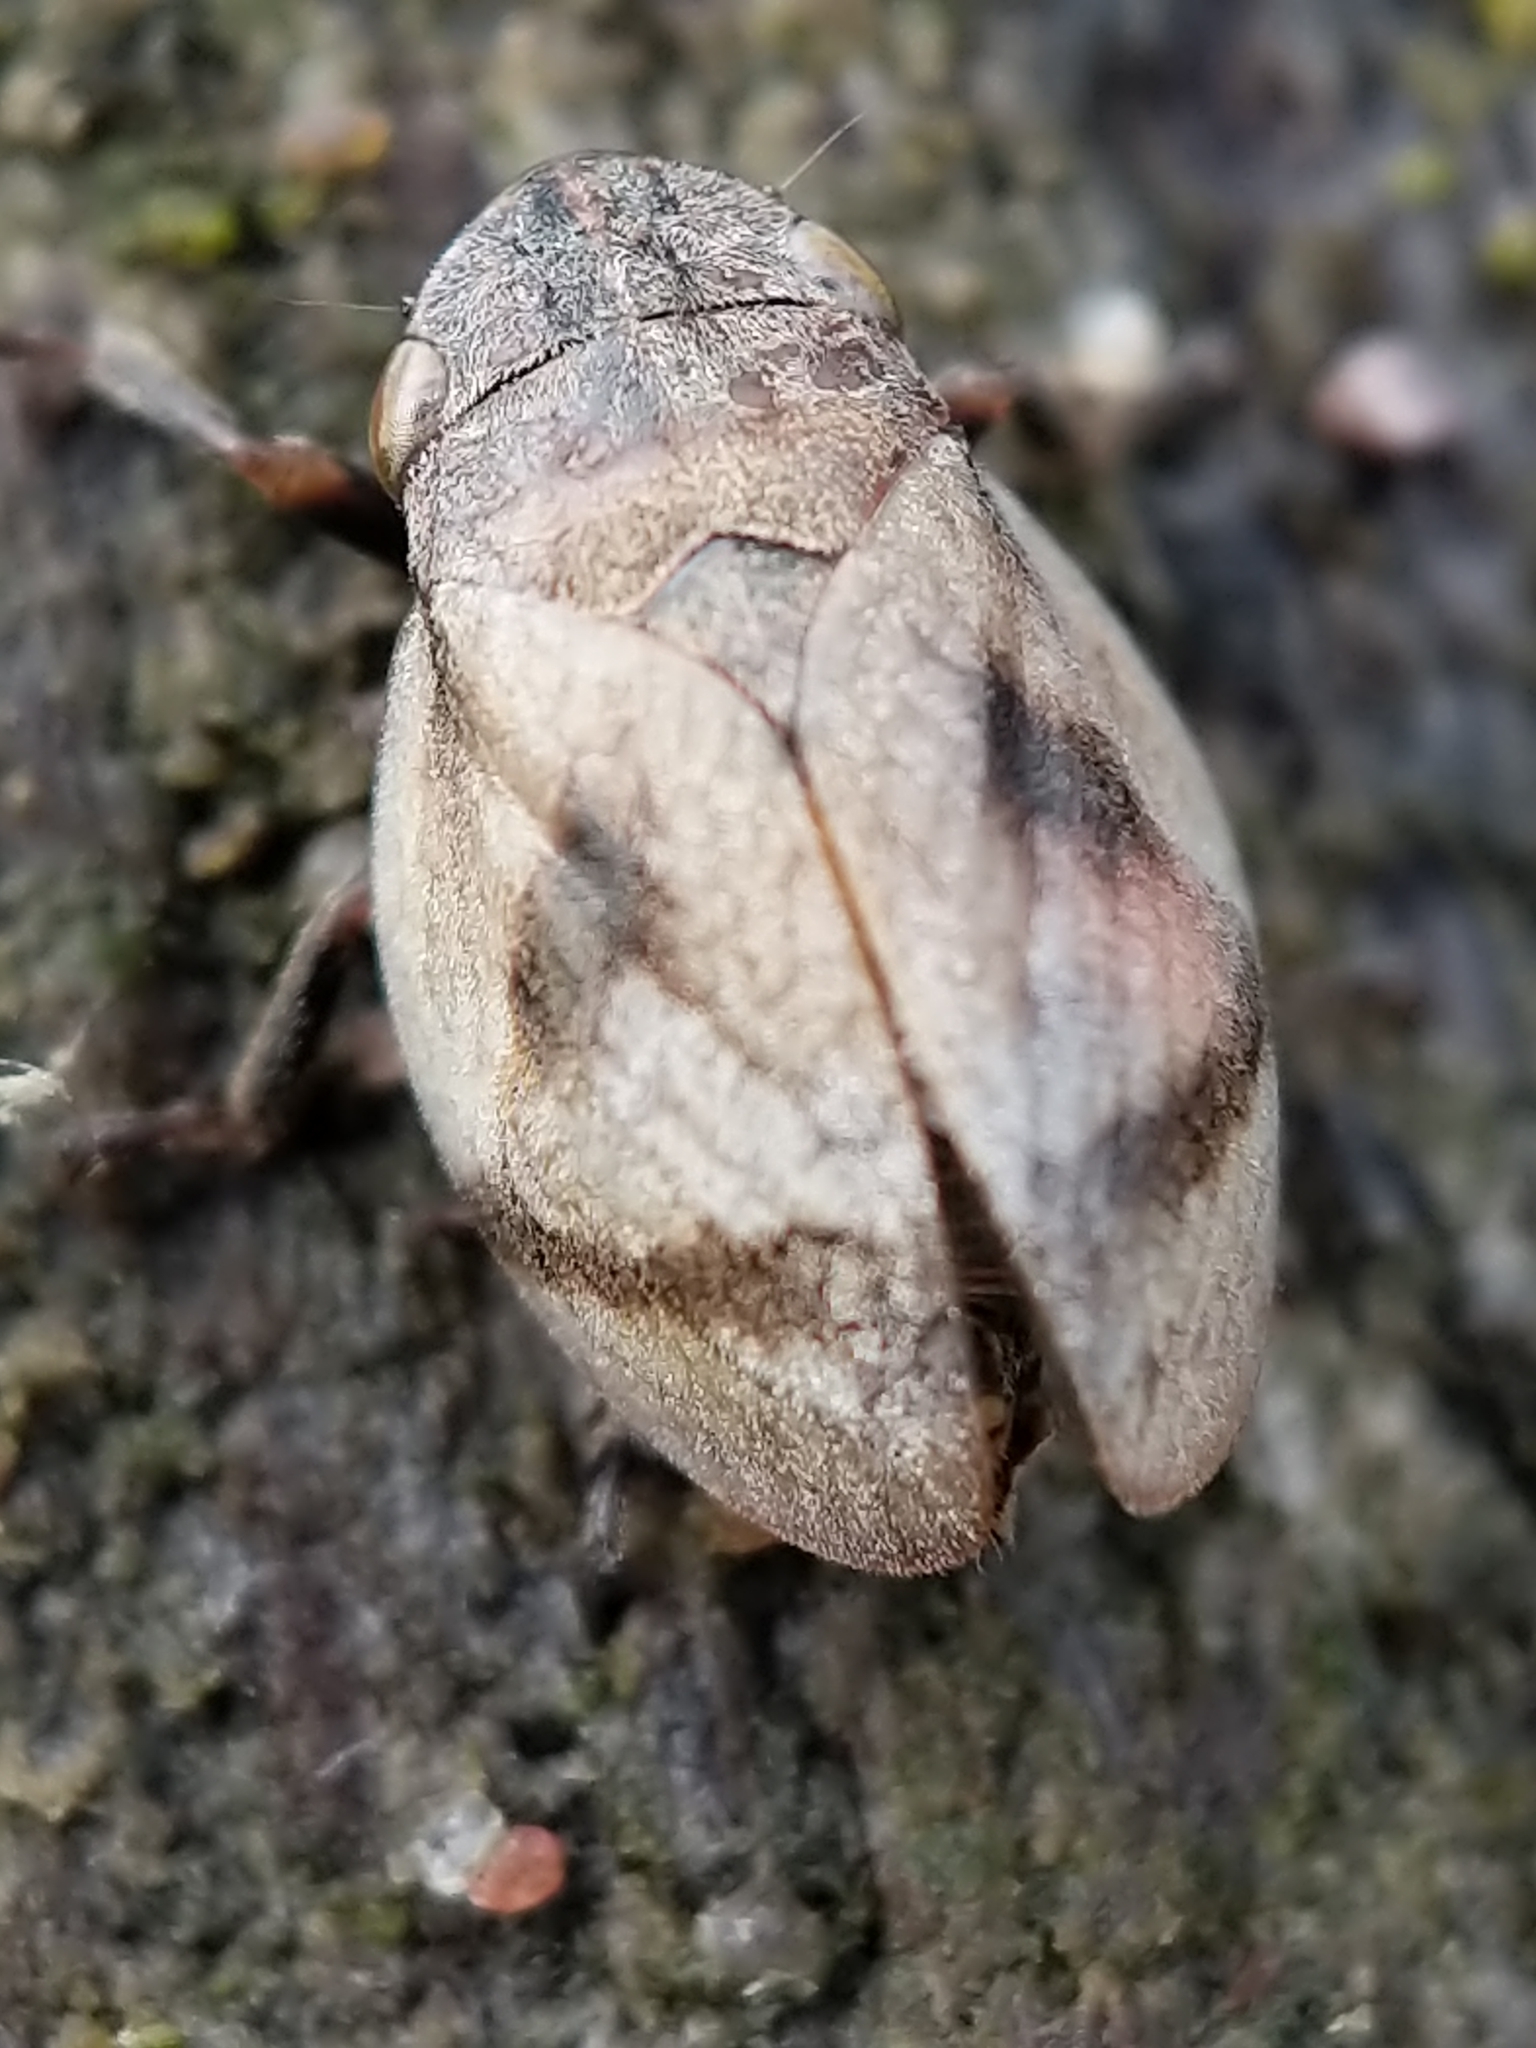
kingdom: Animalia
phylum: Arthropoda
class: Insecta
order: Hemiptera
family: Aphrophoridae
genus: Lepyronia
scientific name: Lepyronia coleoptrata
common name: Leafhopper
